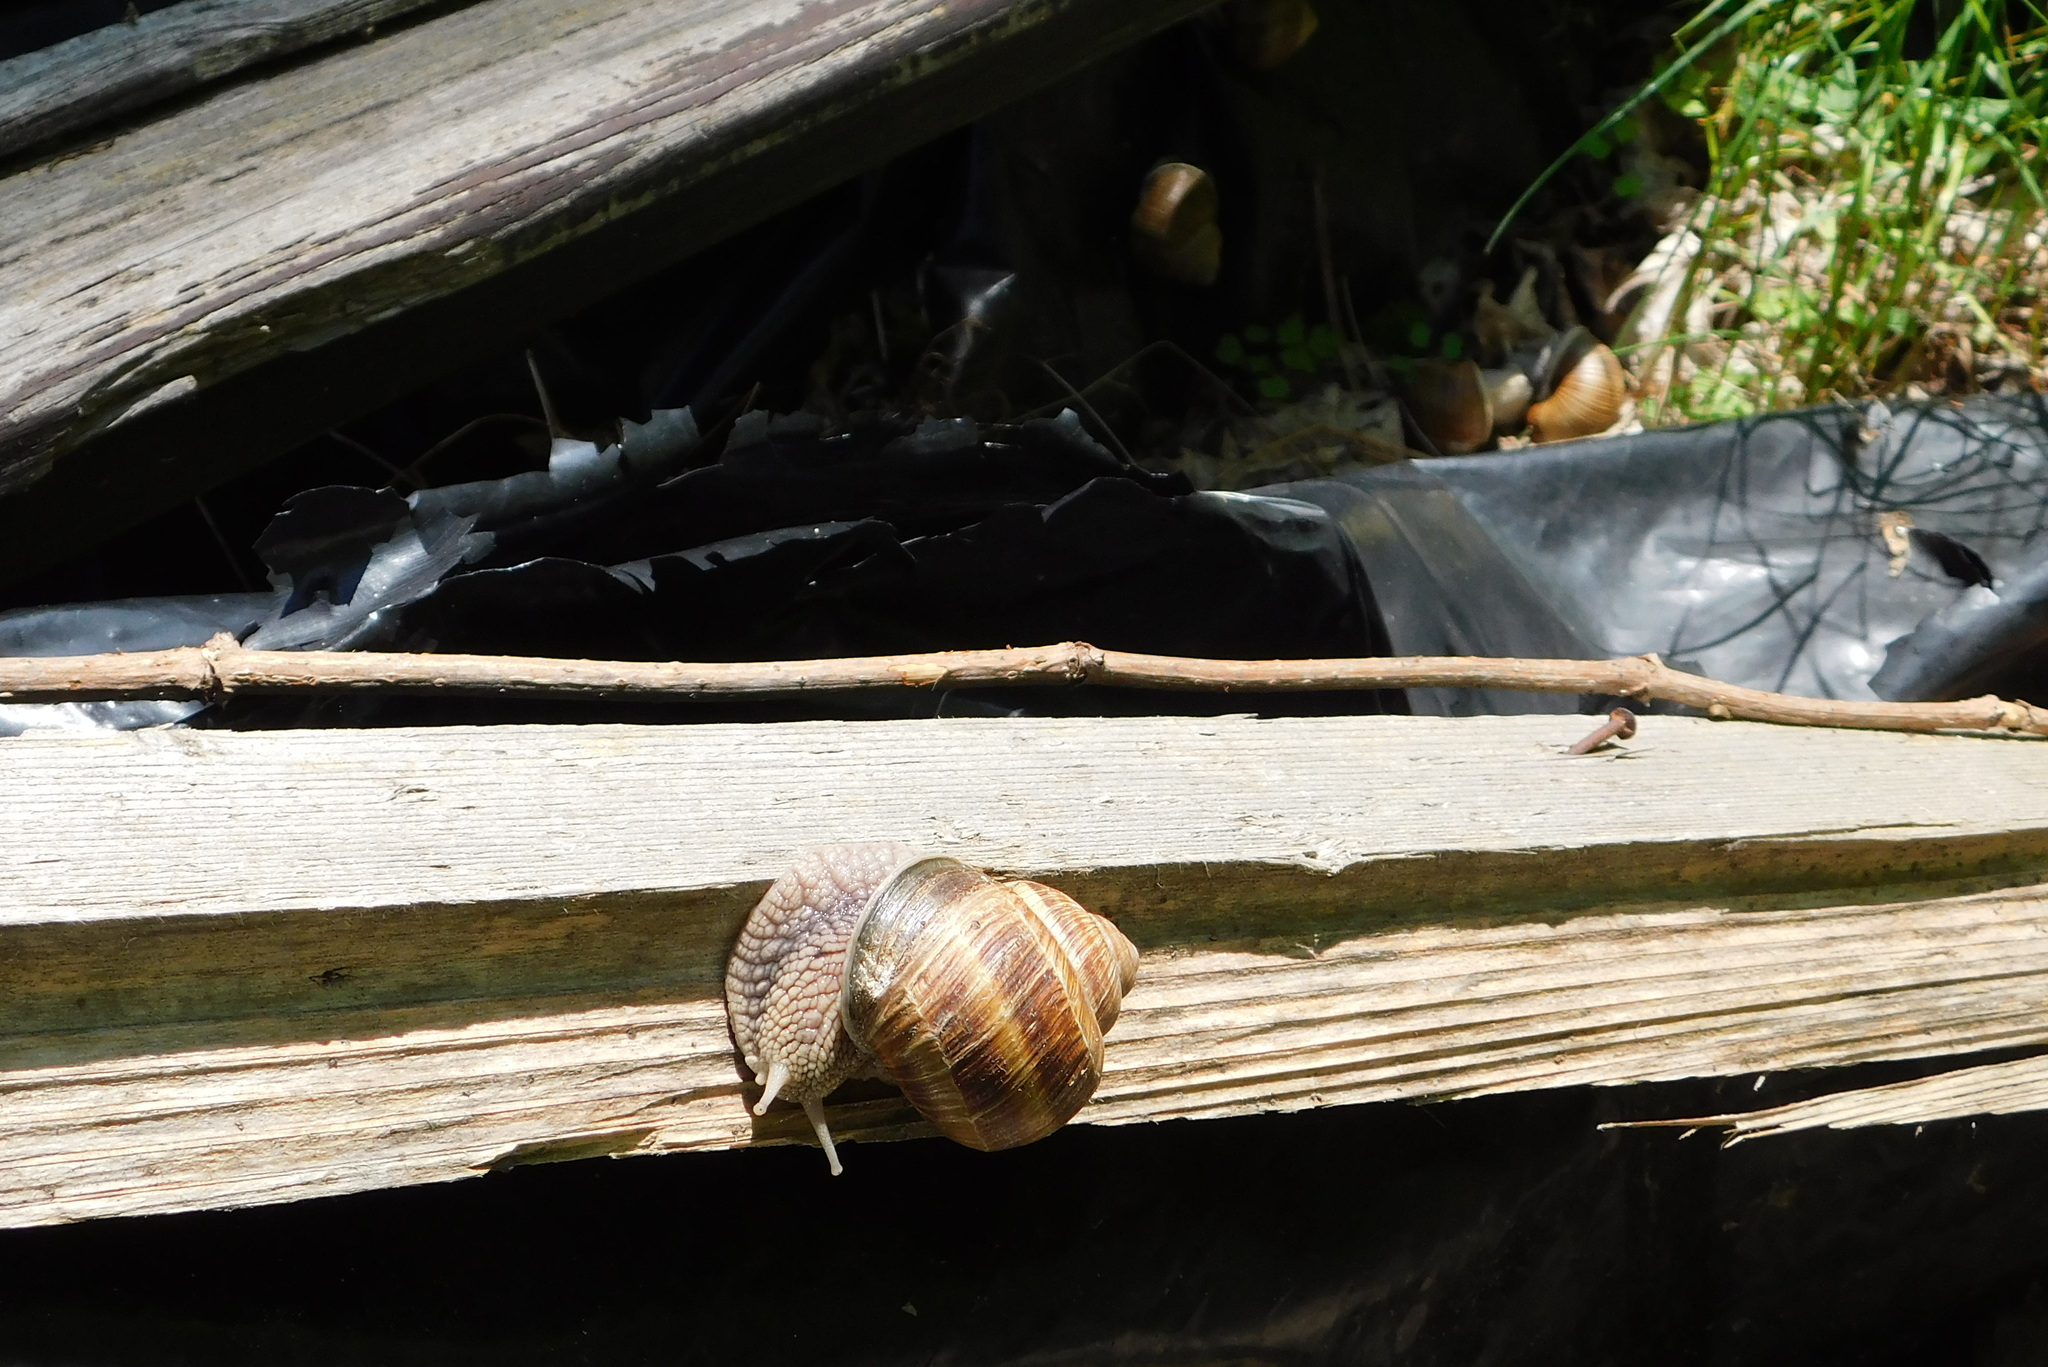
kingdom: Animalia
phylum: Mollusca
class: Gastropoda
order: Stylommatophora
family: Helicidae
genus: Helix
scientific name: Helix pomatia
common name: Roman snail
